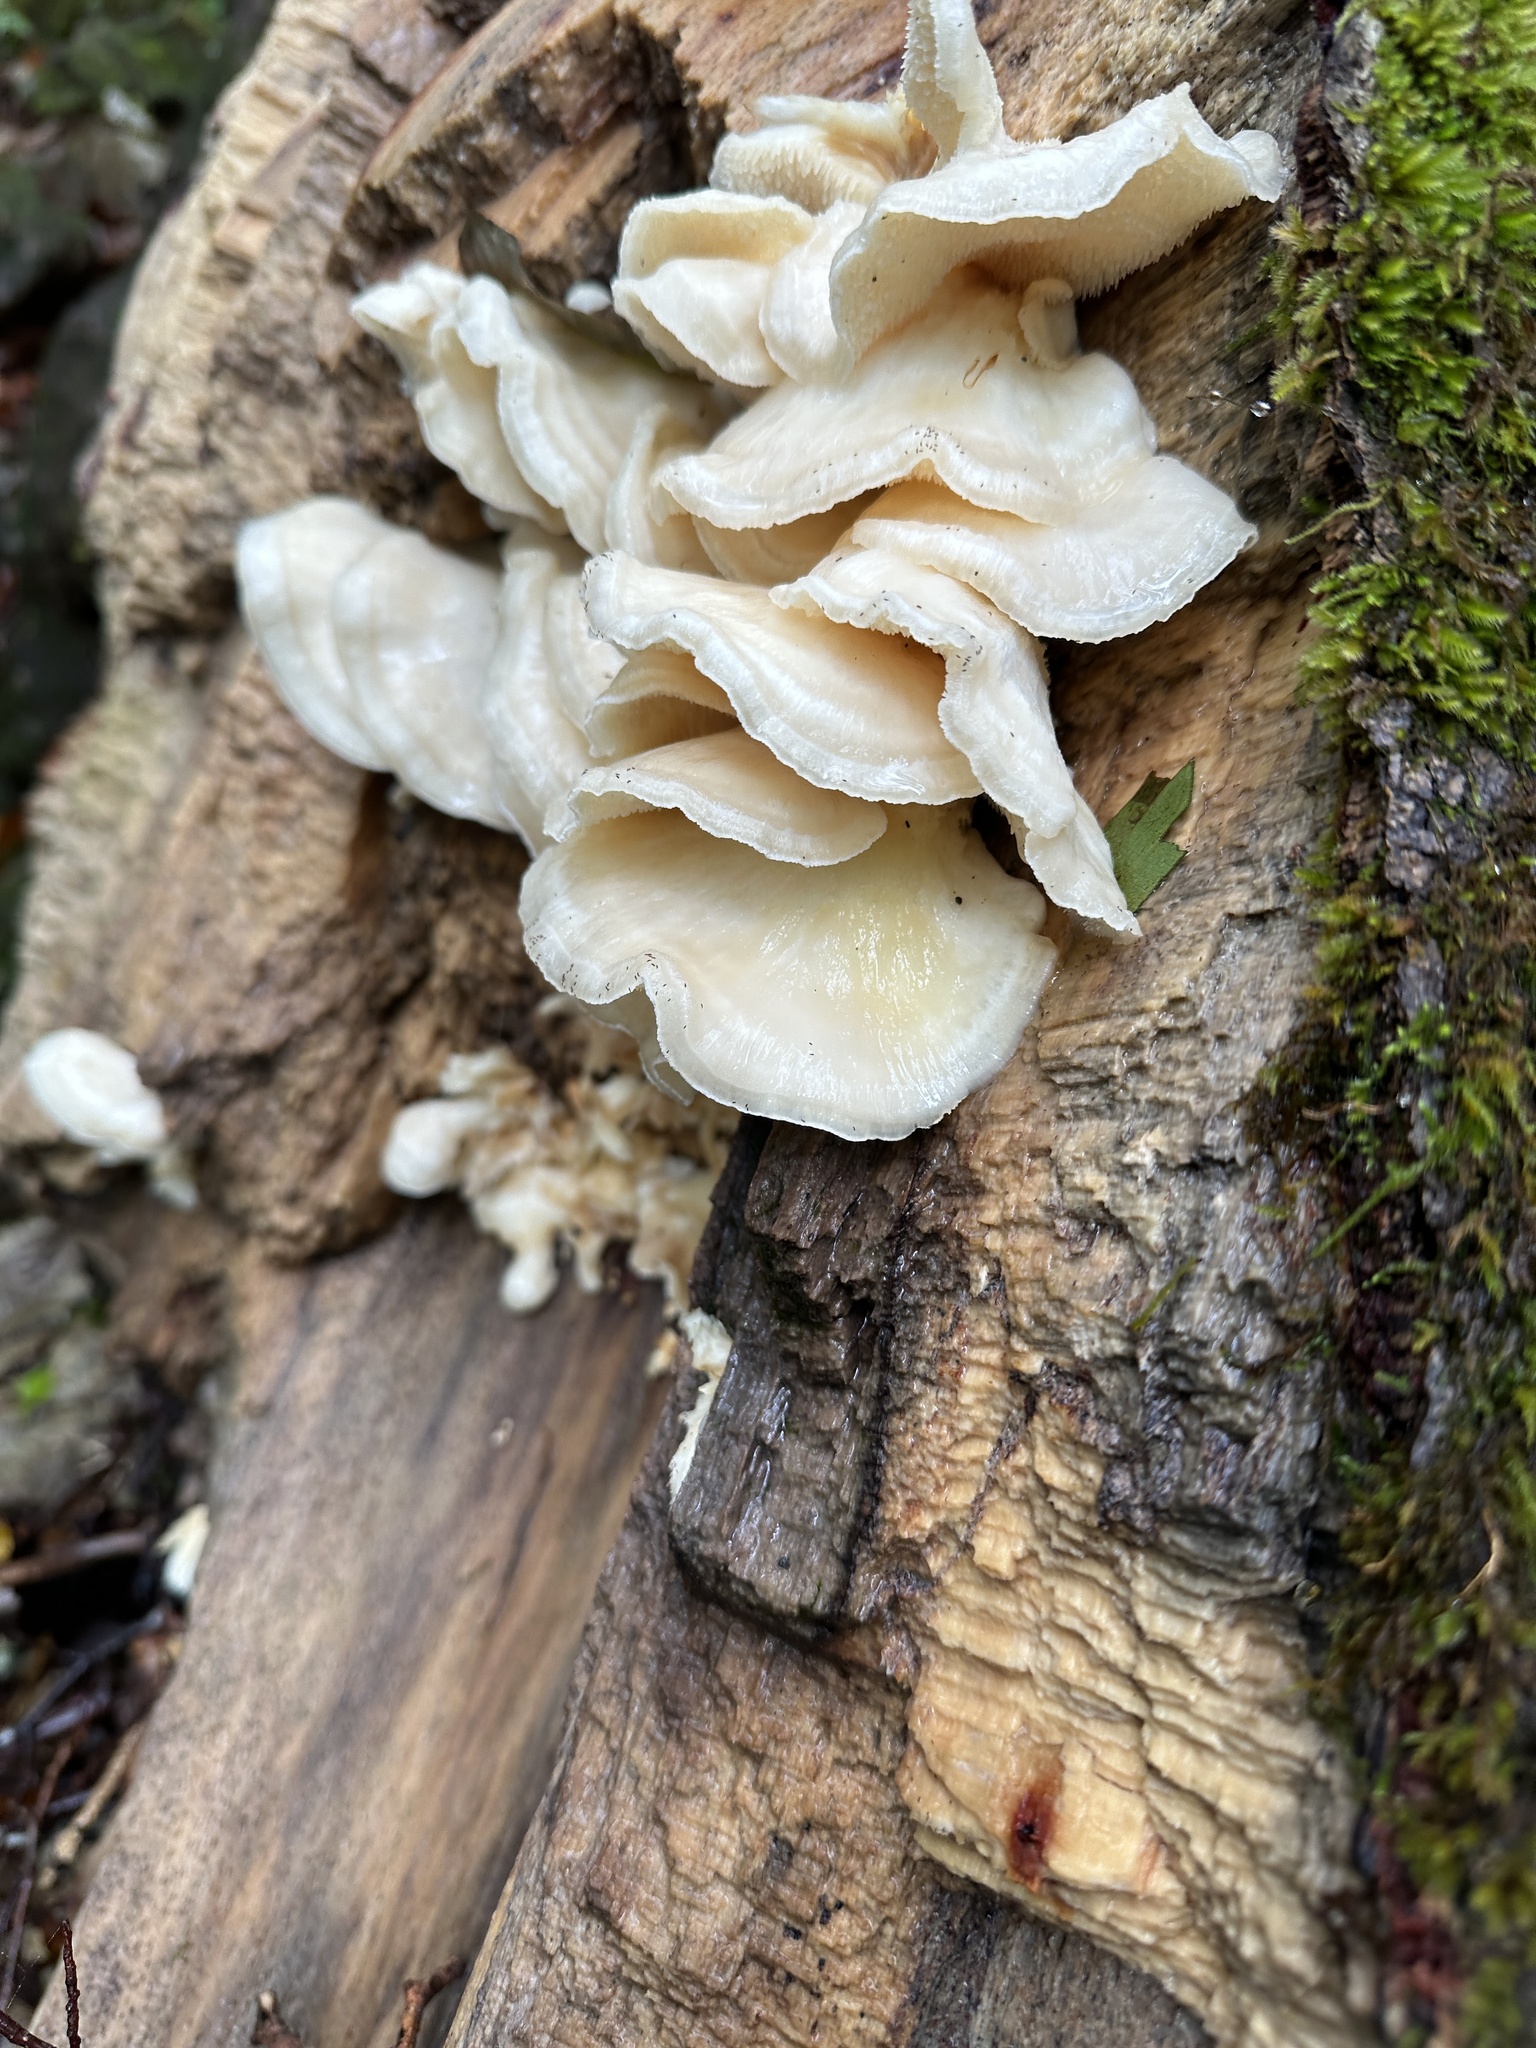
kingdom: Fungi
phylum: Basidiomycota
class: Agaricomycetes
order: Polyporales
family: Meruliaceae
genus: Mycoleptodonoides
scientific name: Mycoleptodonoides aitchisonii
